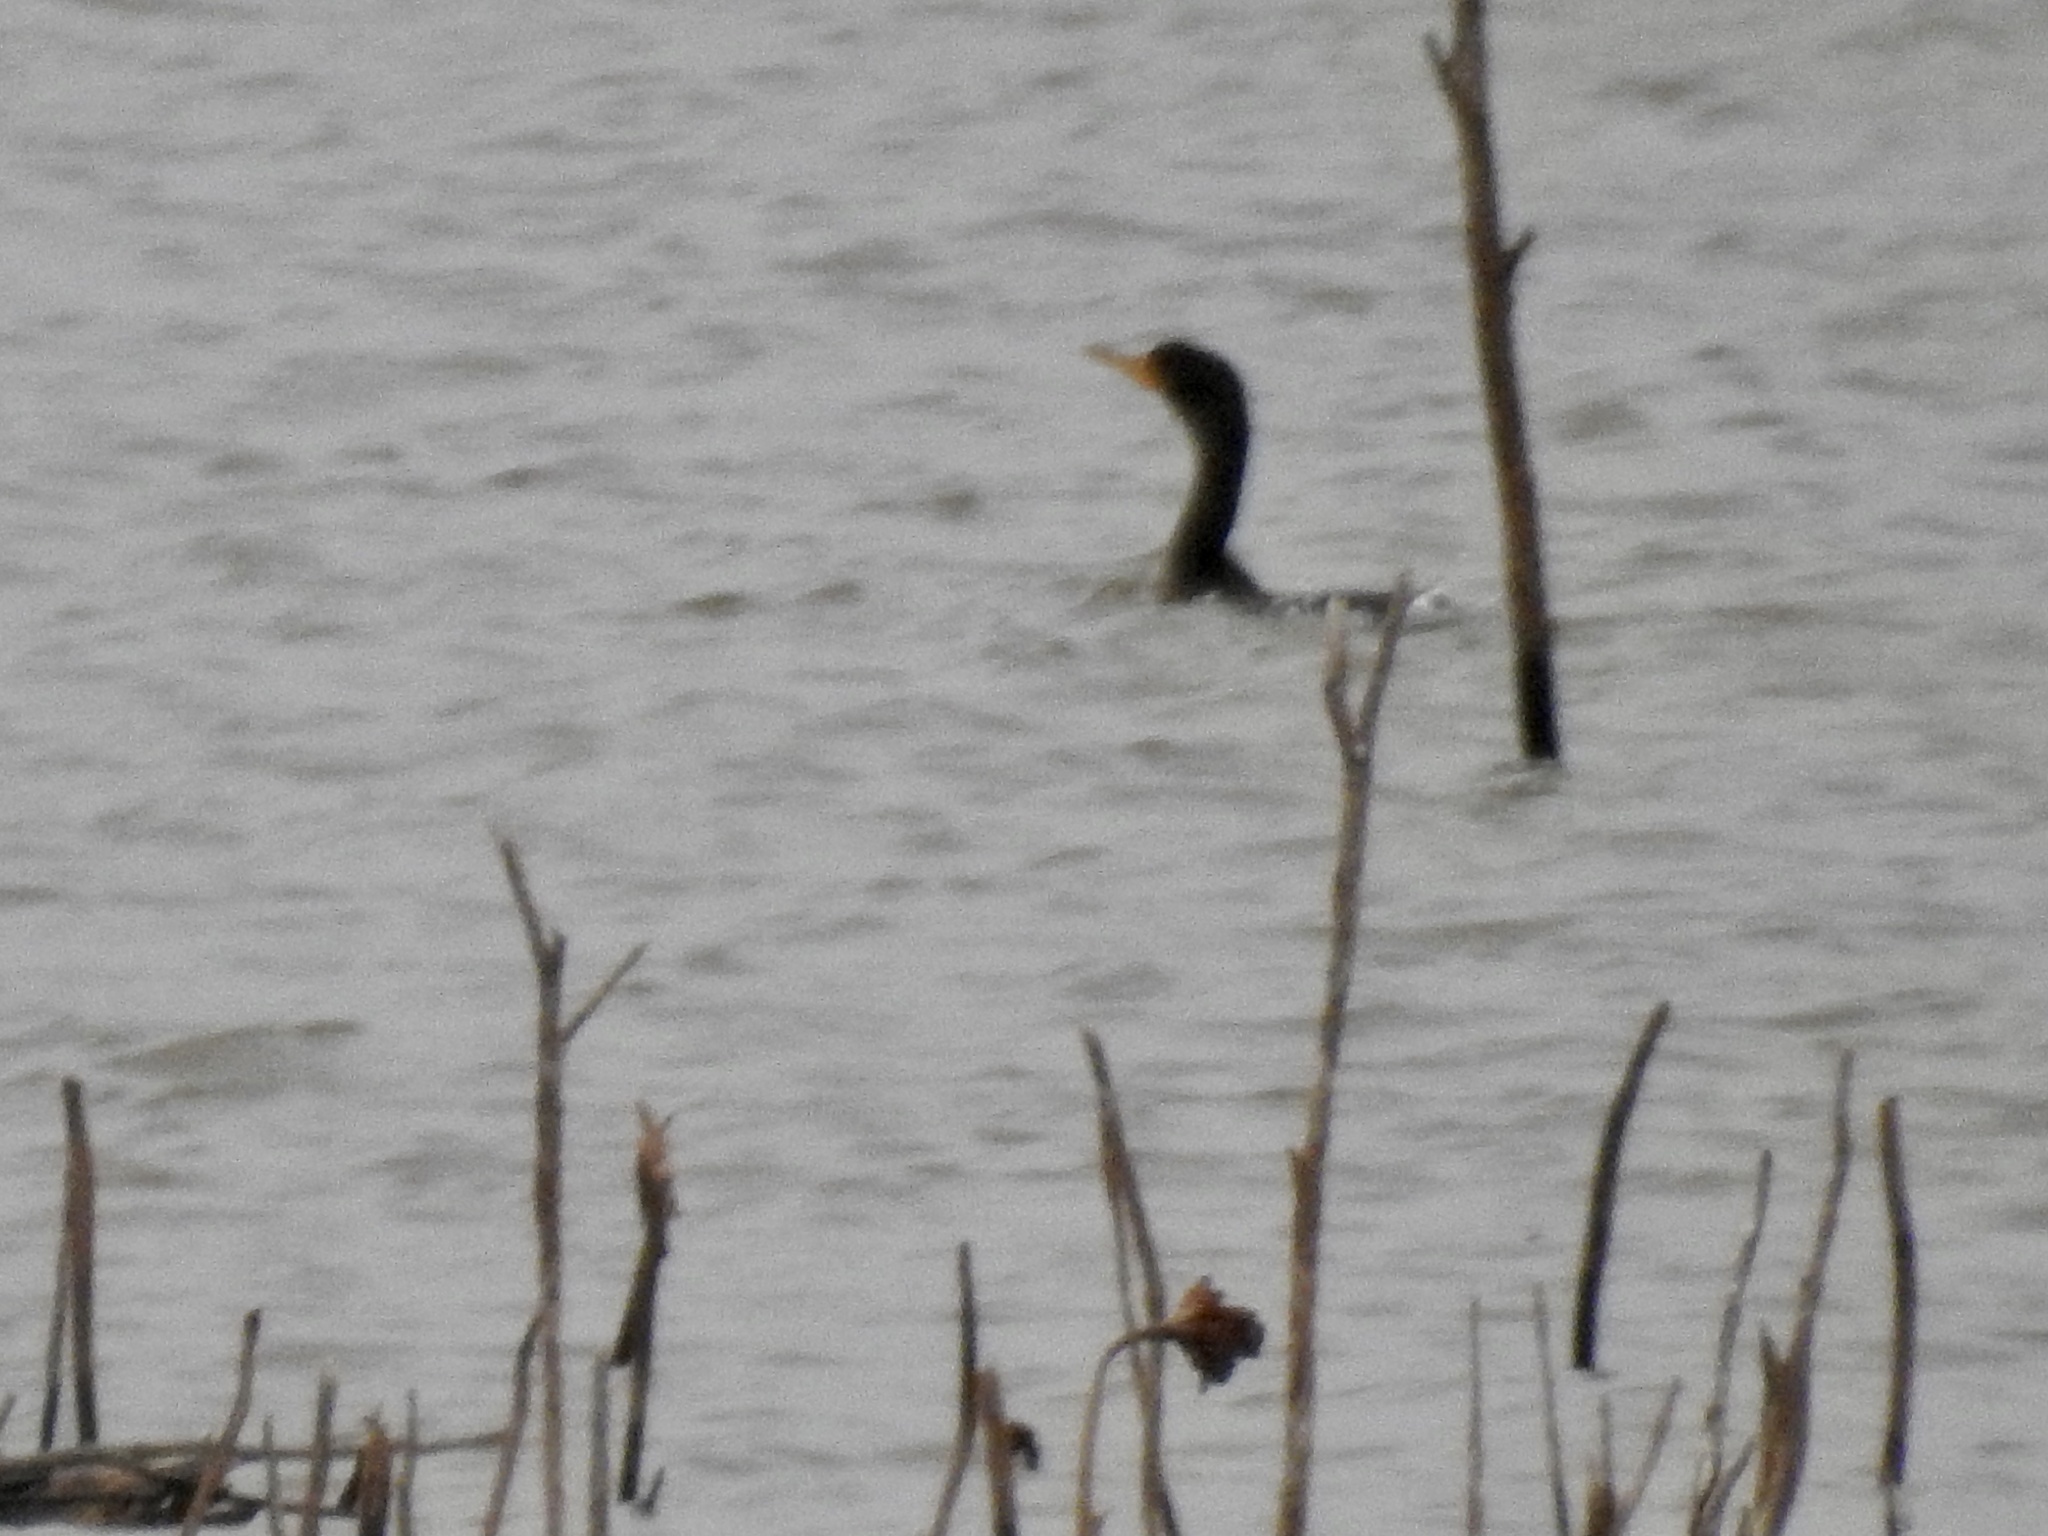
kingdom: Animalia
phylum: Chordata
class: Aves
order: Suliformes
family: Phalacrocoracidae
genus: Phalacrocorax
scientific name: Phalacrocorax auritus
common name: Double-crested cormorant
